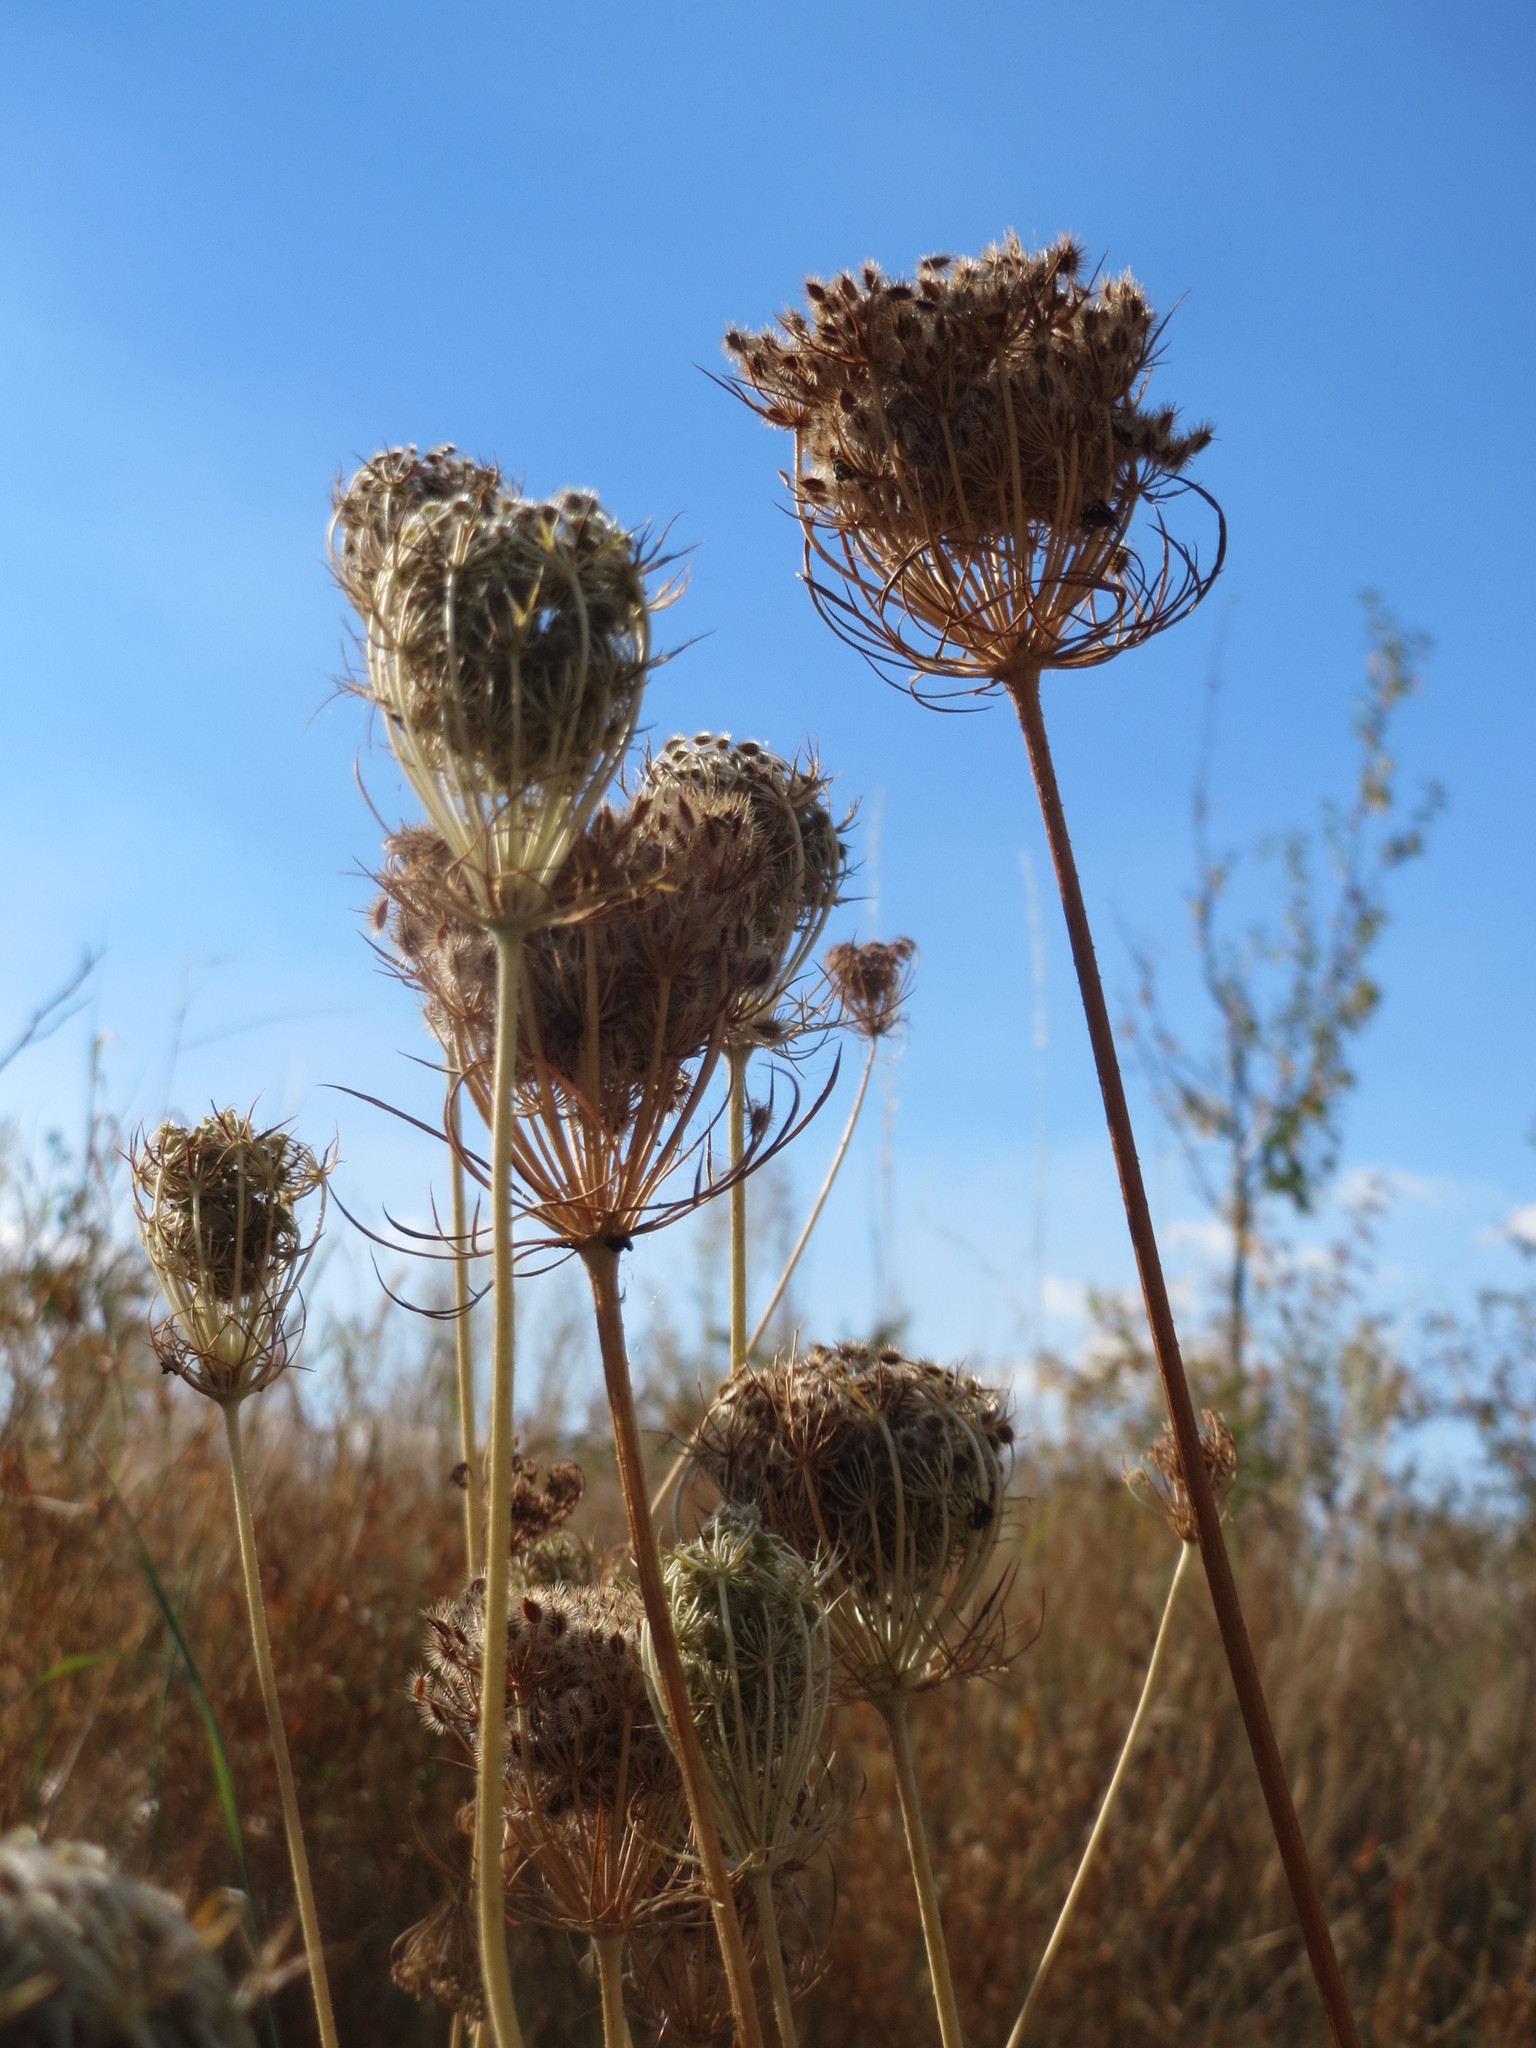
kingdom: Plantae
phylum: Tracheophyta
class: Magnoliopsida
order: Apiales
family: Apiaceae
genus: Daucus
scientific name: Daucus carota
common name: Wild carrot
